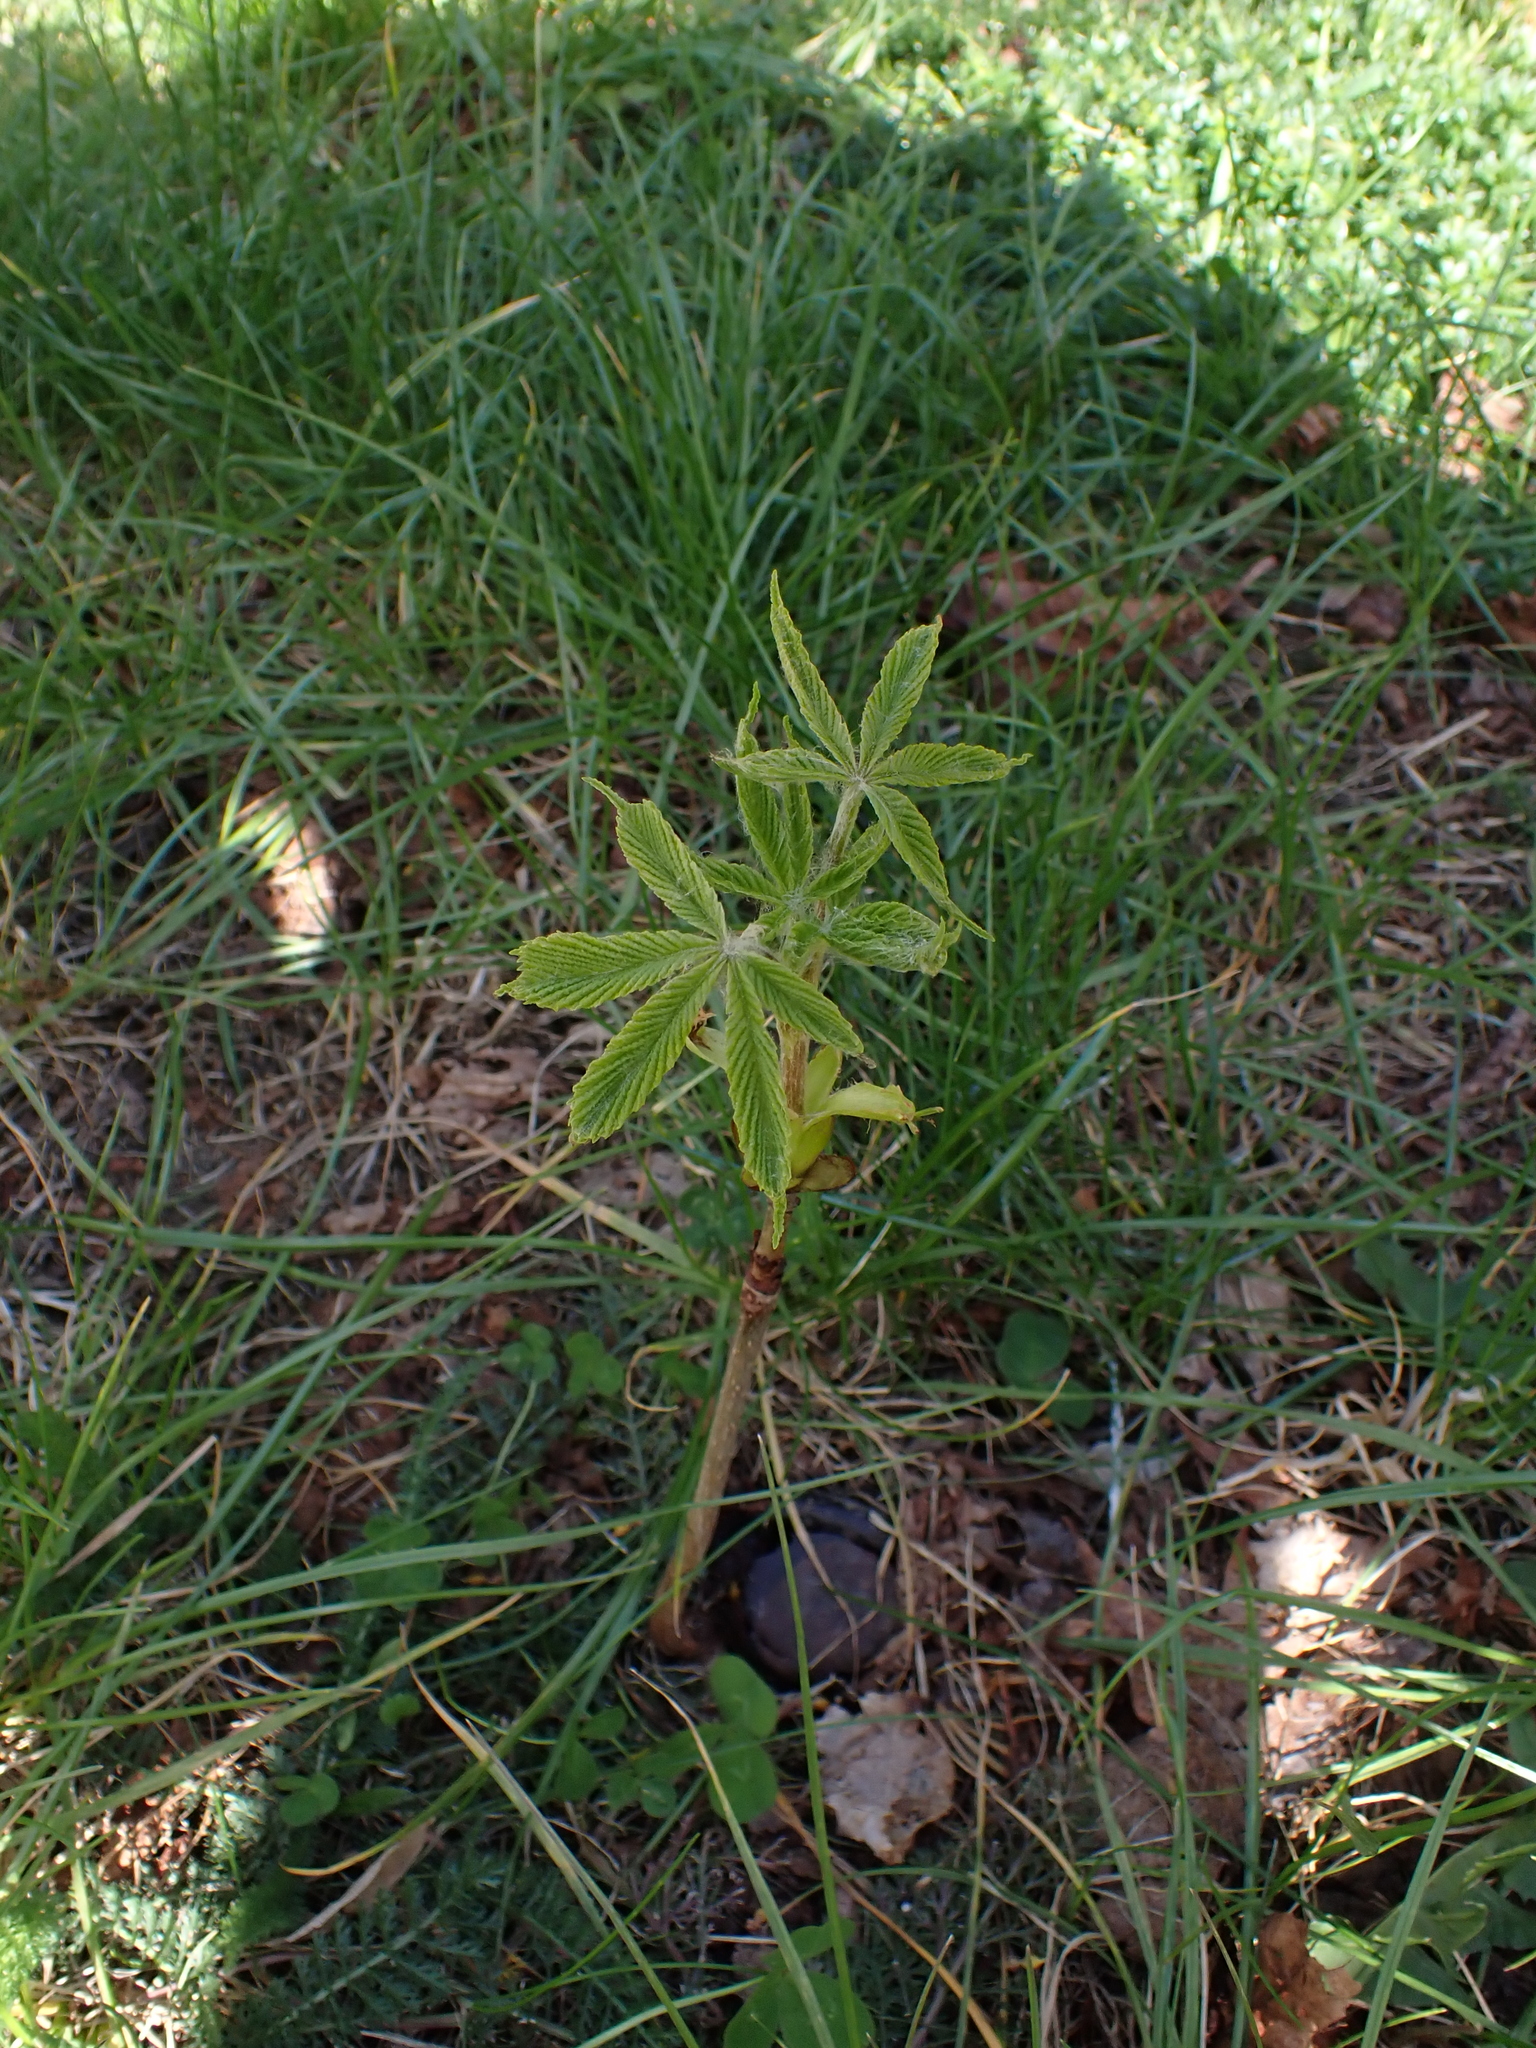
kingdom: Plantae
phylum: Tracheophyta
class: Magnoliopsida
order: Sapindales
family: Sapindaceae
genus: Aesculus
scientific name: Aesculus hippocastanum
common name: Horse-chestnut
